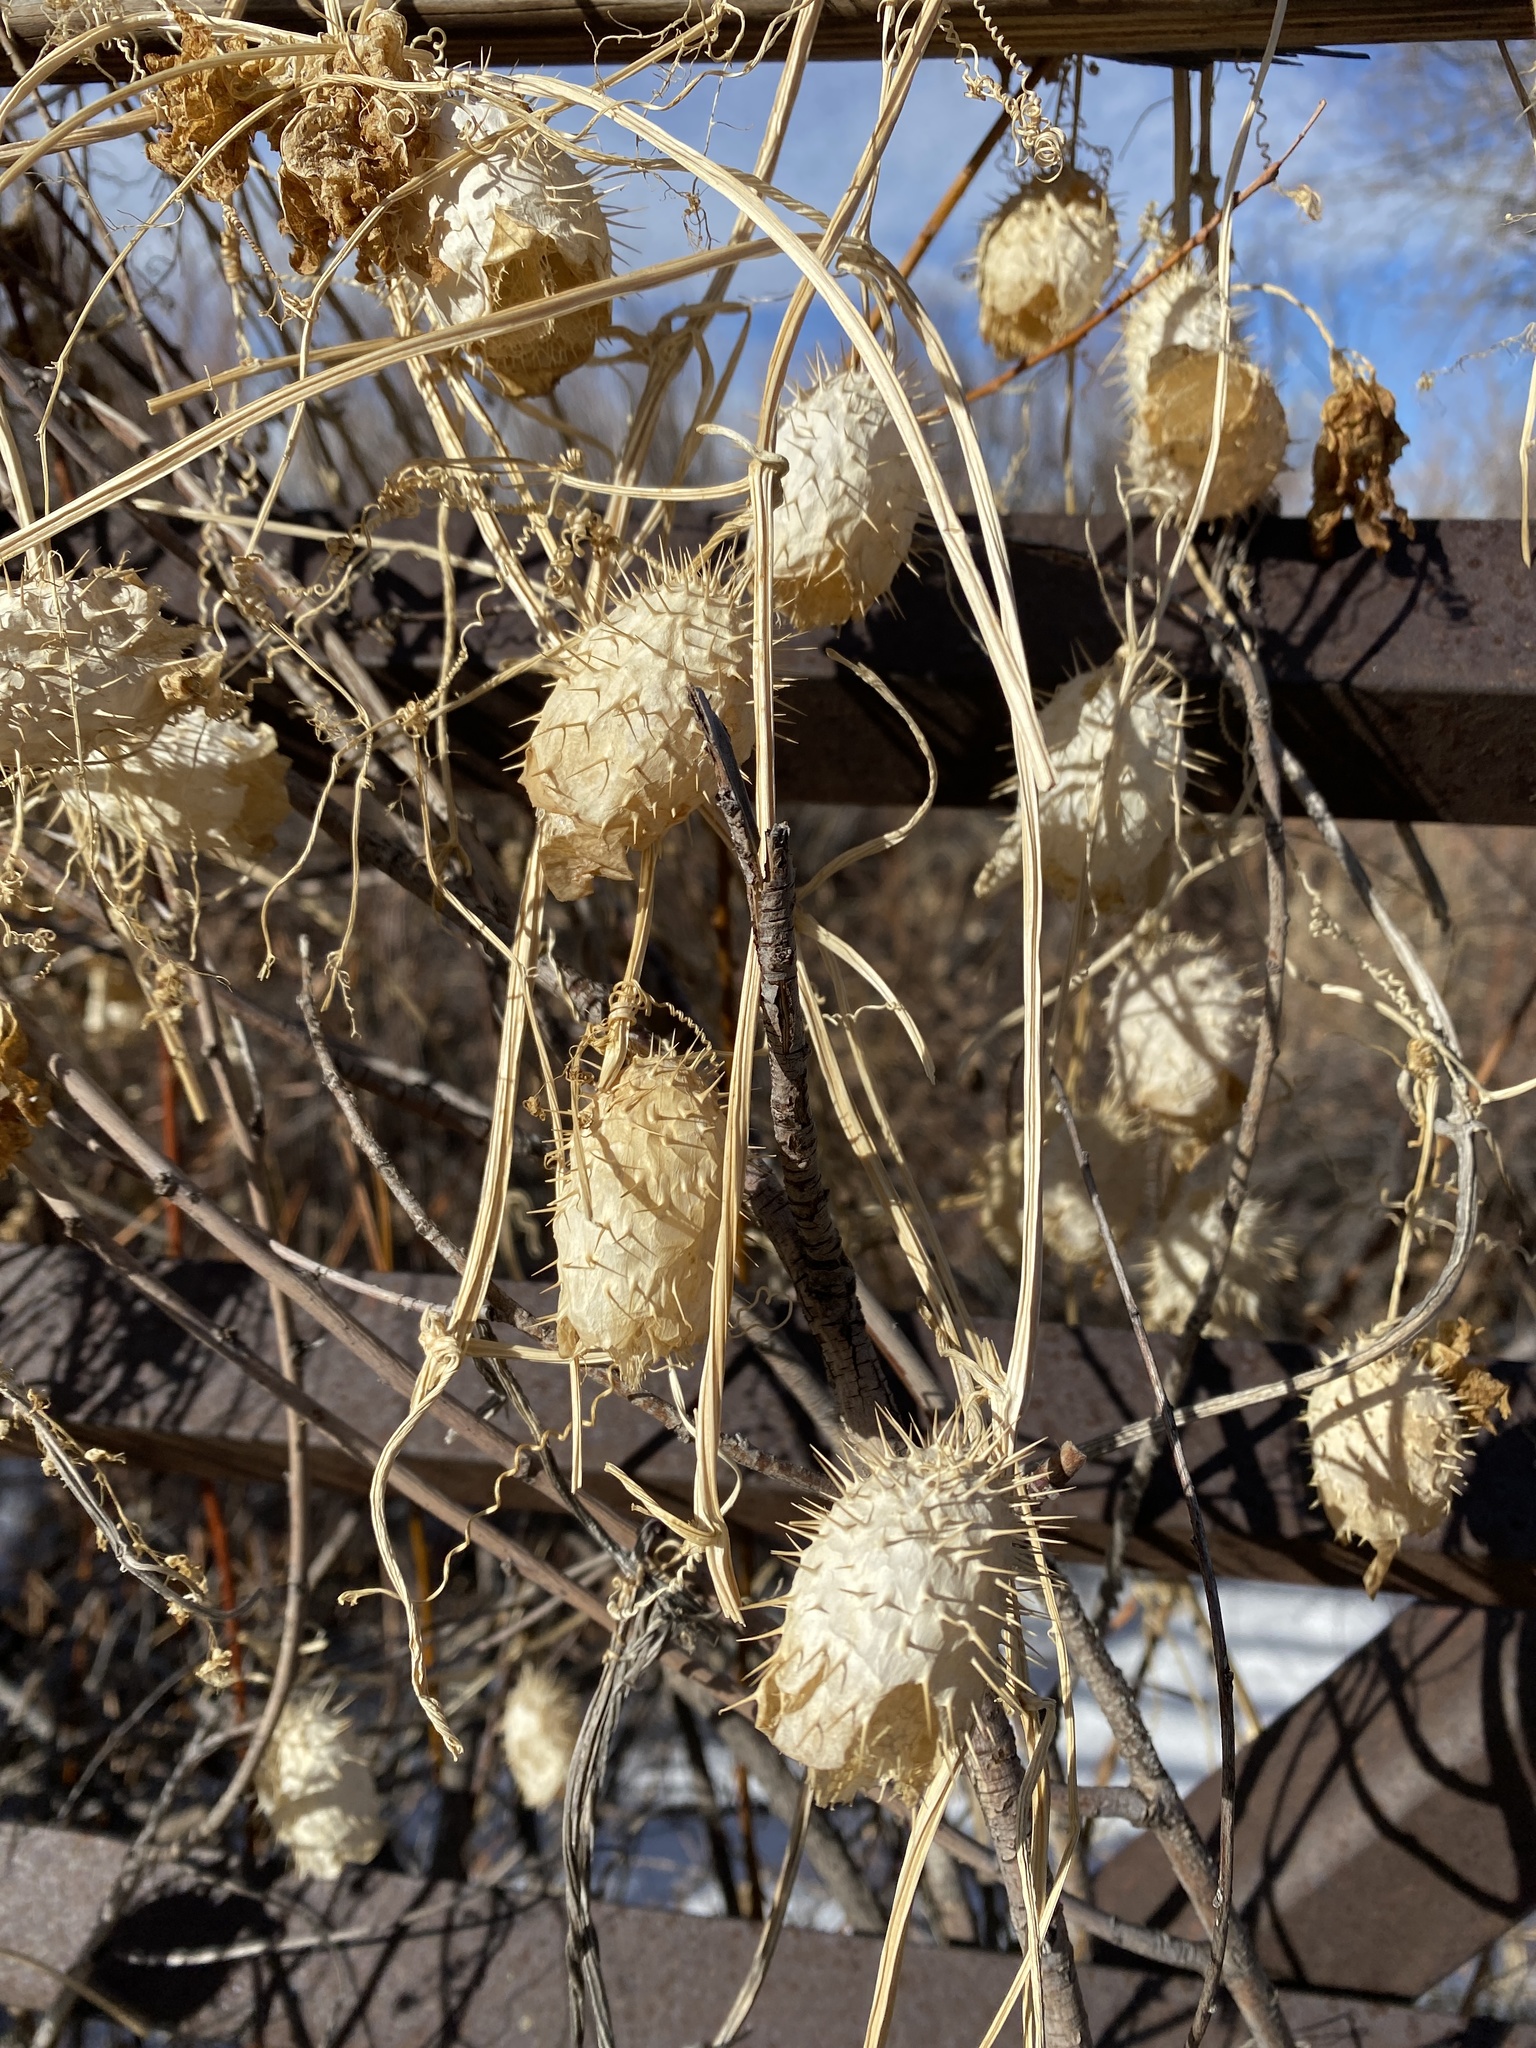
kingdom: Plantae
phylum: Tracheophyta
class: Magnoliopsida
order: Cucurbitales
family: Cucurbitaceae
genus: Echinocystis
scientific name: Echinocystis lobata
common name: Wild cucumber
